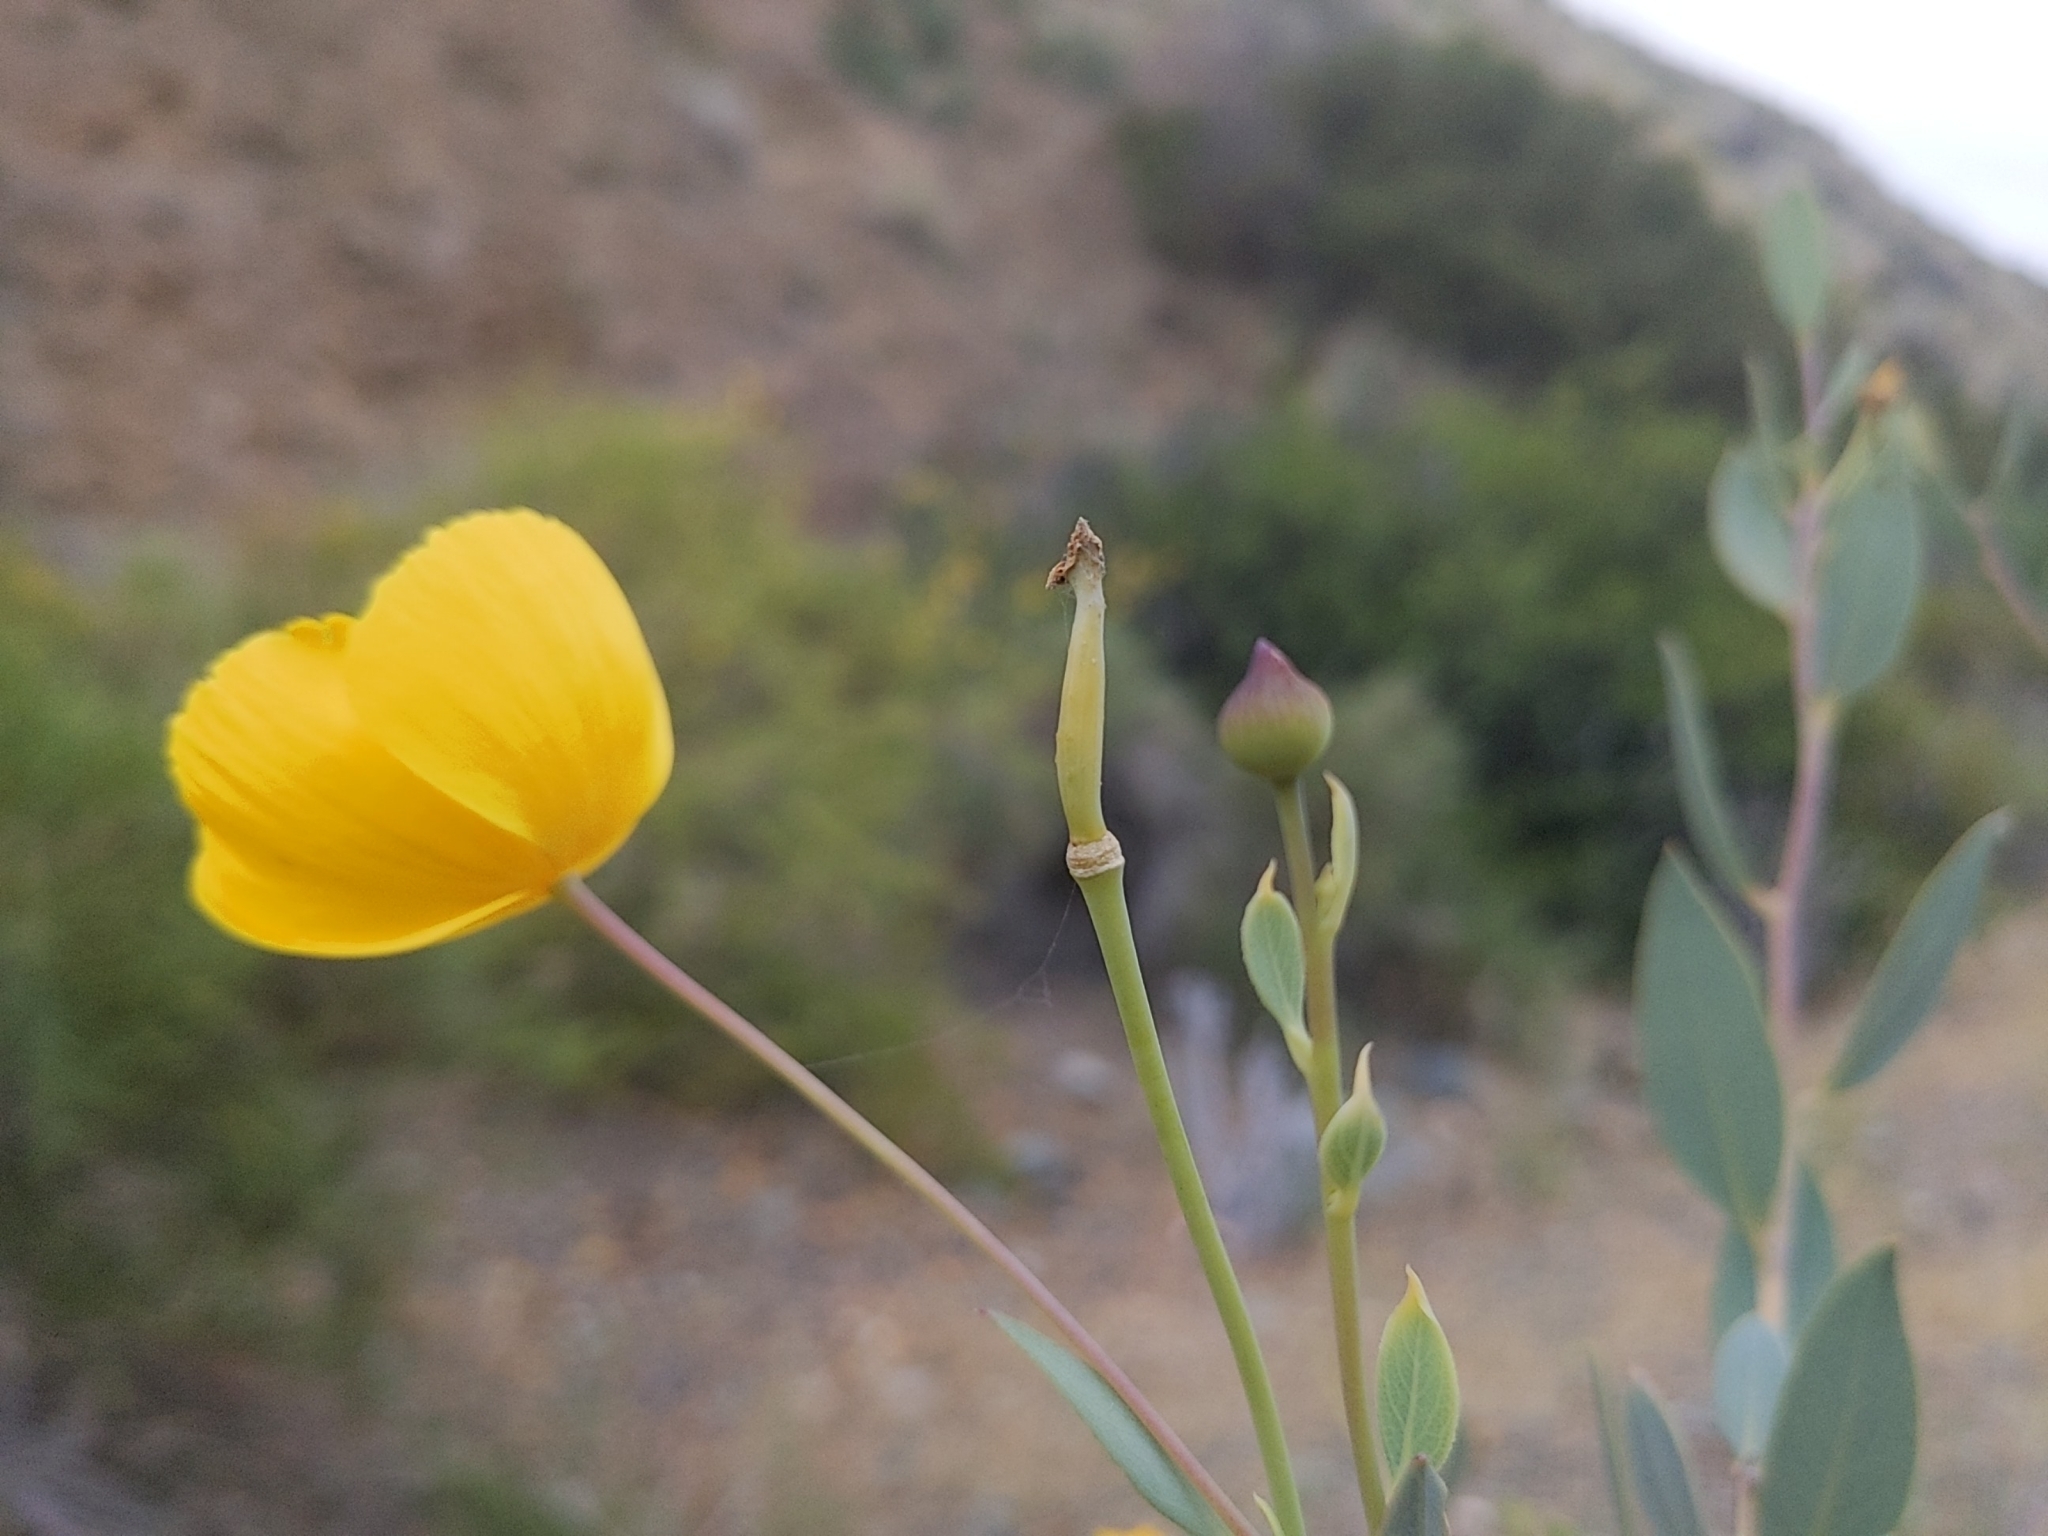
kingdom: Plantae
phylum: Tracheophyta
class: Magnoliopsida
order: Ranunculales
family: Papaveraceae
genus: Dendromecon
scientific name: Dendromecon rigida
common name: Tree poppy
